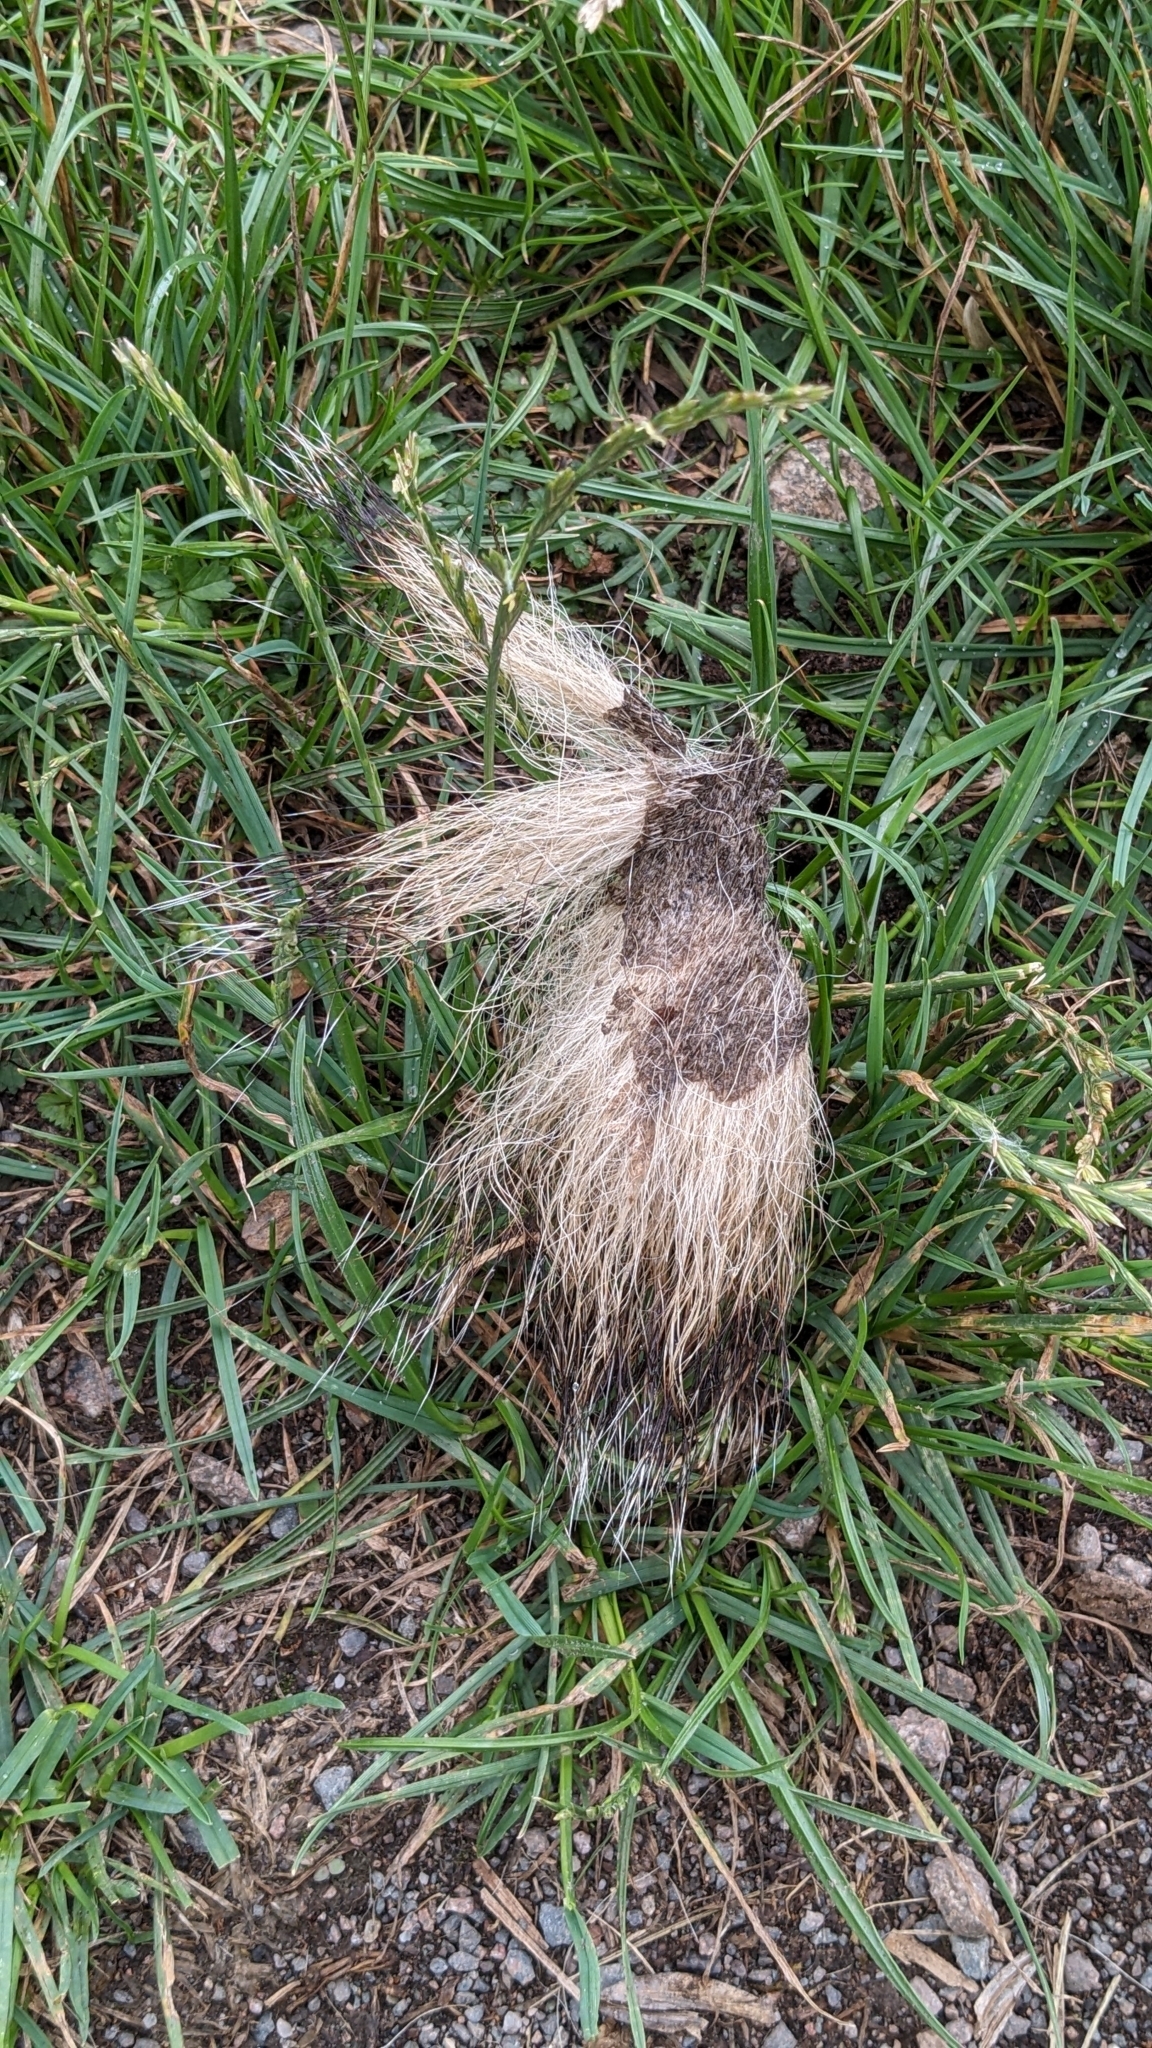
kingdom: Animalia
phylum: Chordata
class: Mammalia
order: Carnivora
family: Mustelidae
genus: Meles
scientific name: Meles meles
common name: Eurasian badger
